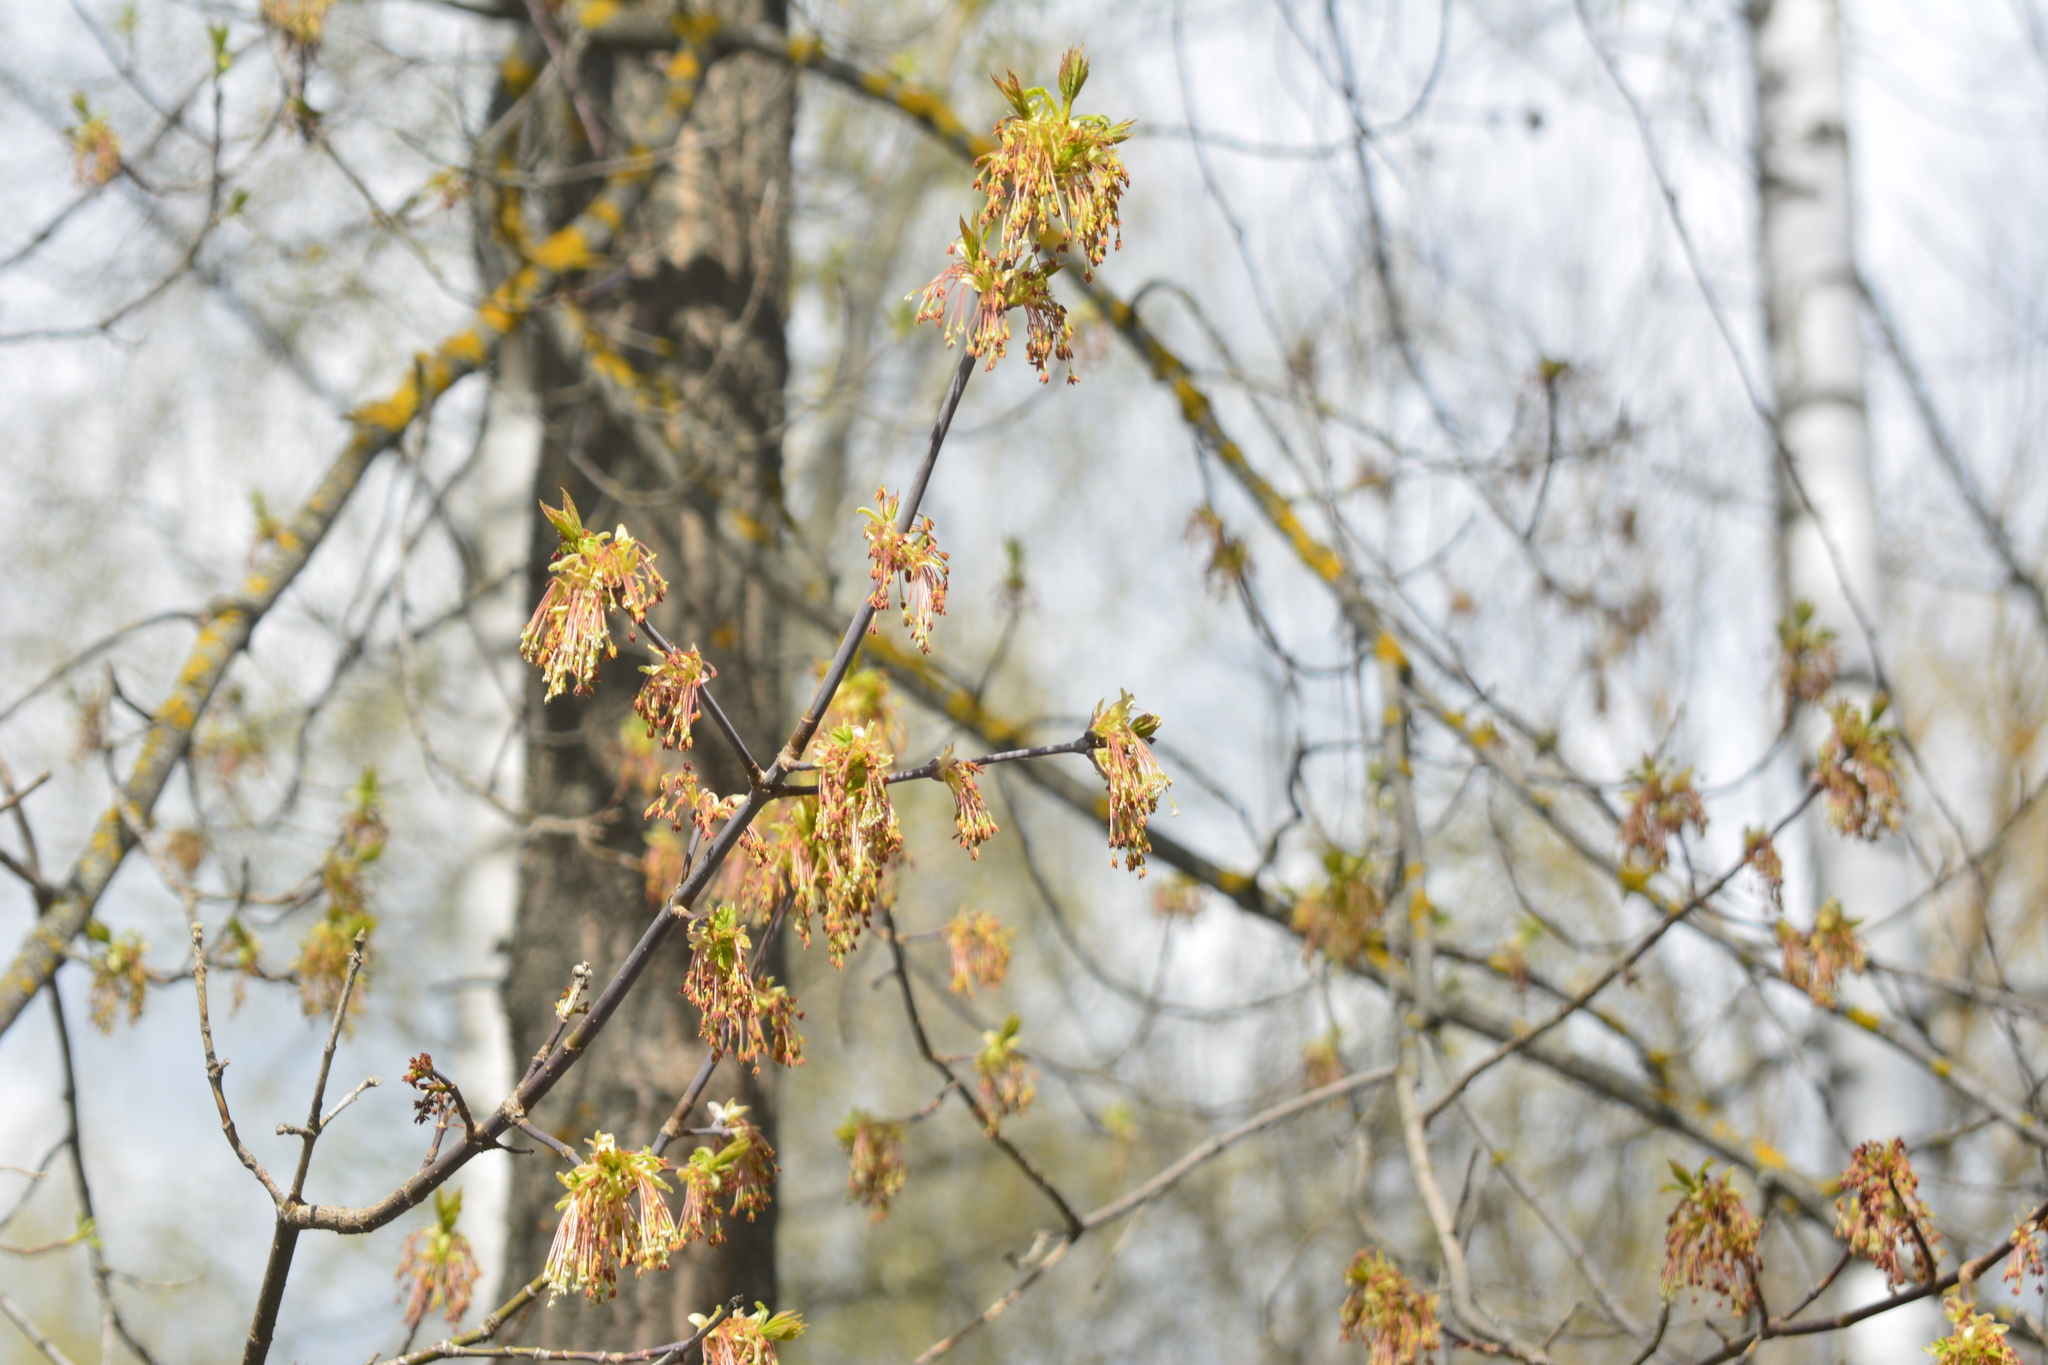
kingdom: Plantae
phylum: Tracheophyta
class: Magnoliopsida
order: Sapindales
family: Sapindaceae
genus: Acer
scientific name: Acer negundo
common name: Ashleaf maple
